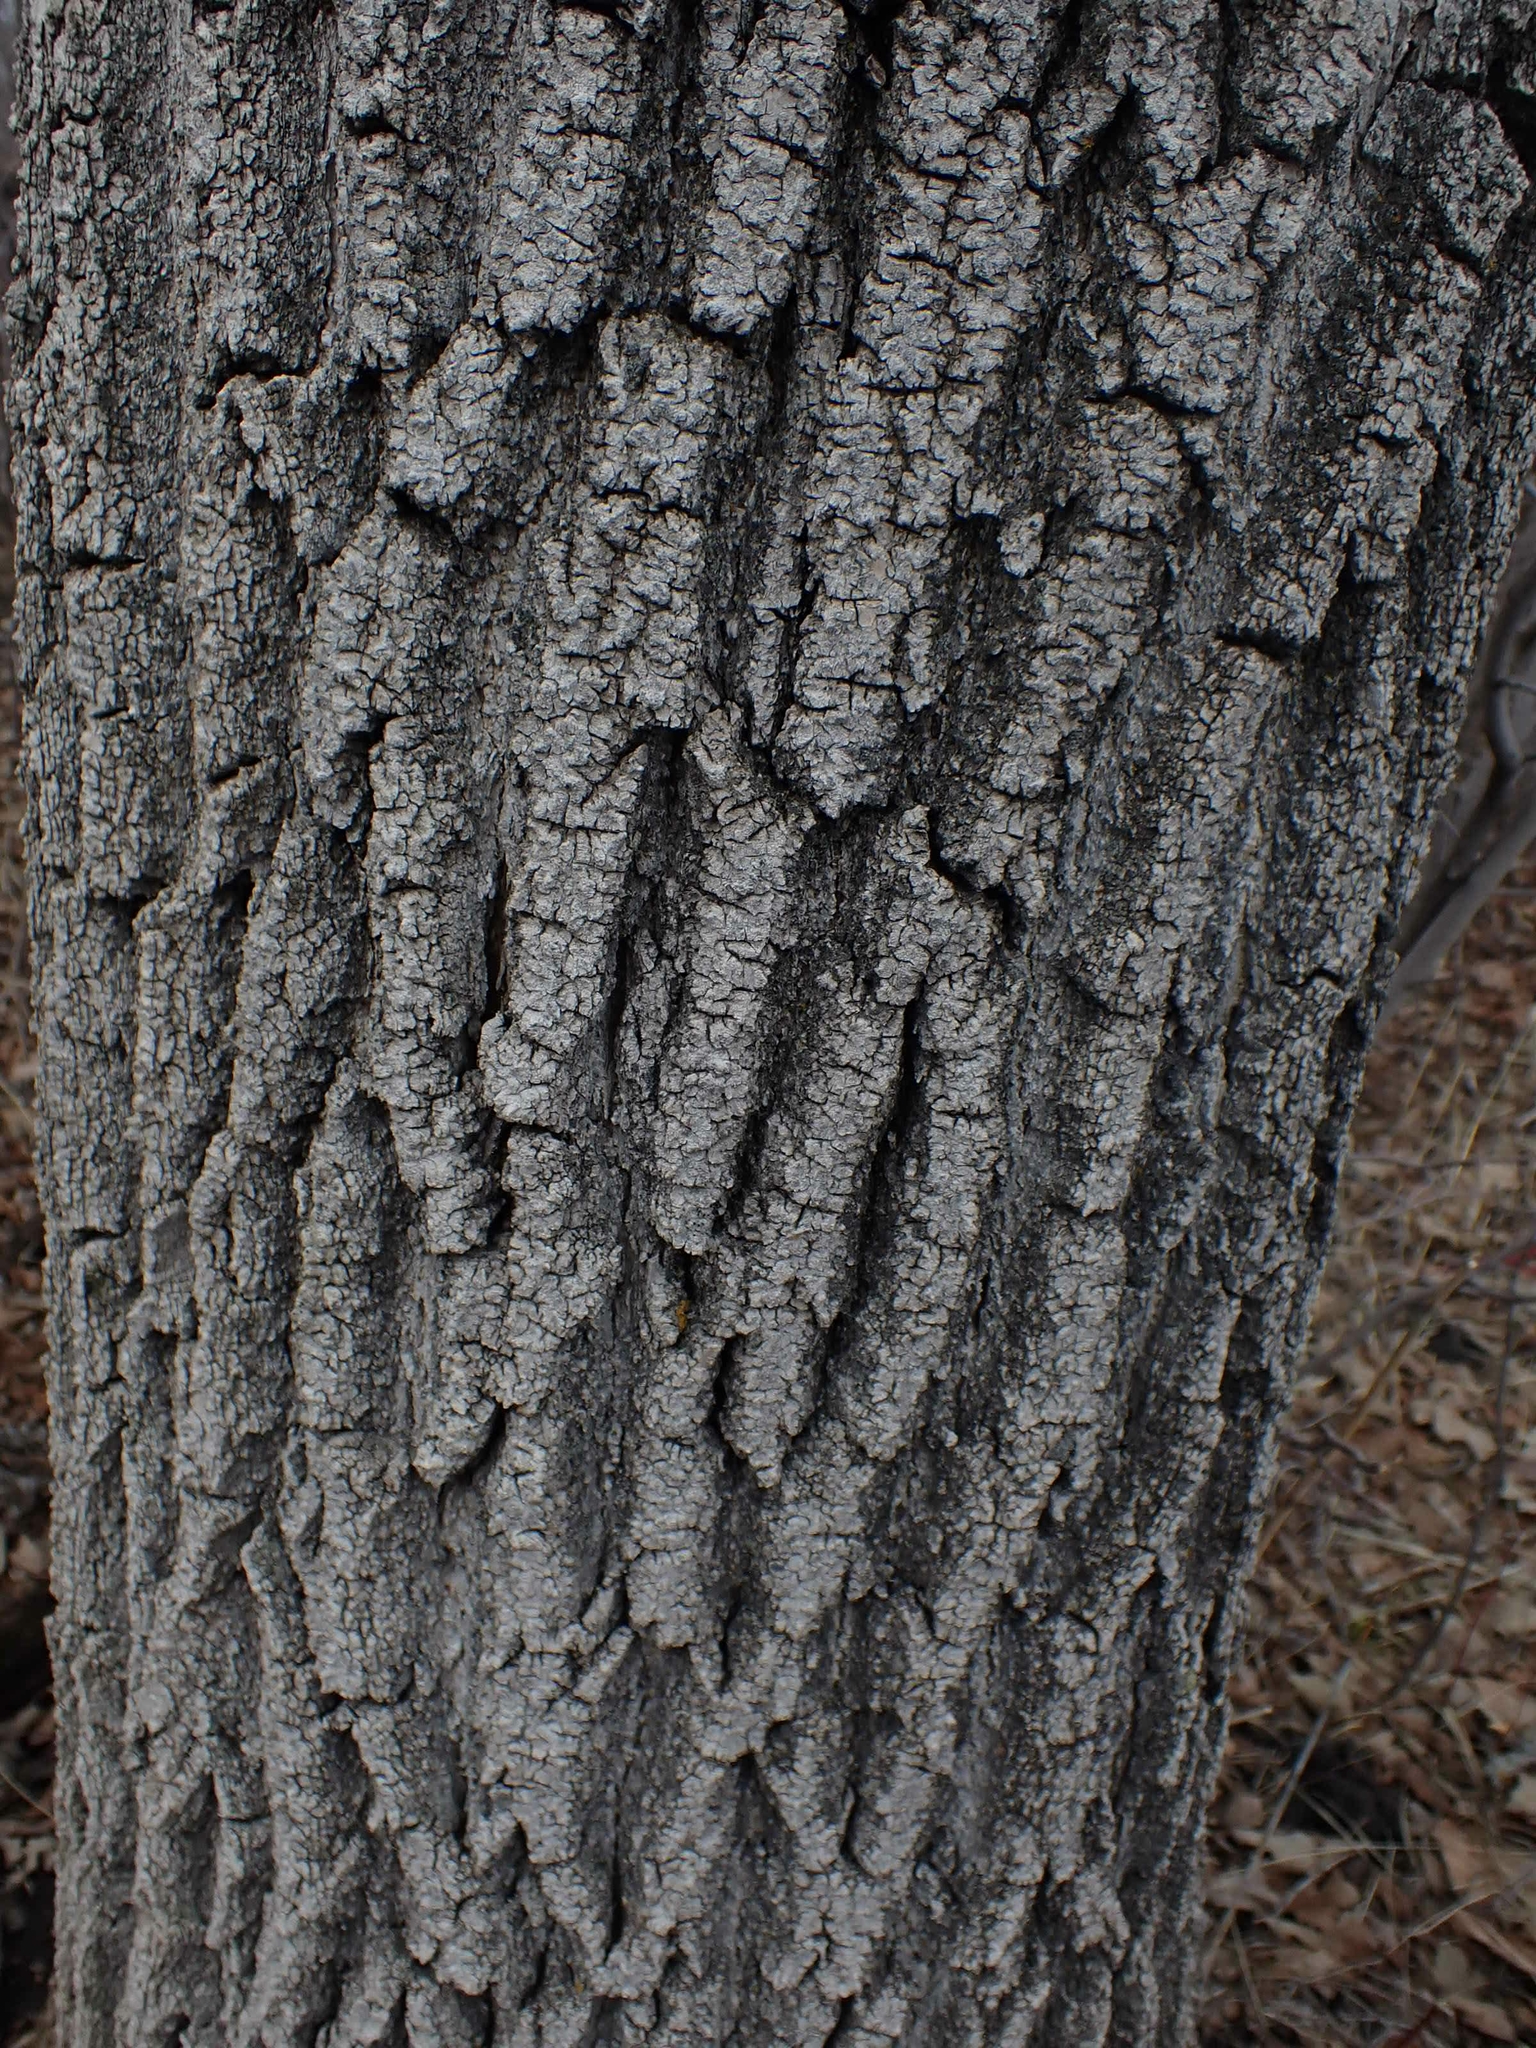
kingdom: Plantae
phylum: Tracheophyta
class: Magnoliopsida
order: Sapindales
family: Sapindaceae
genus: Acer
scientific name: Acer negundo
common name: Ashleaf maple
